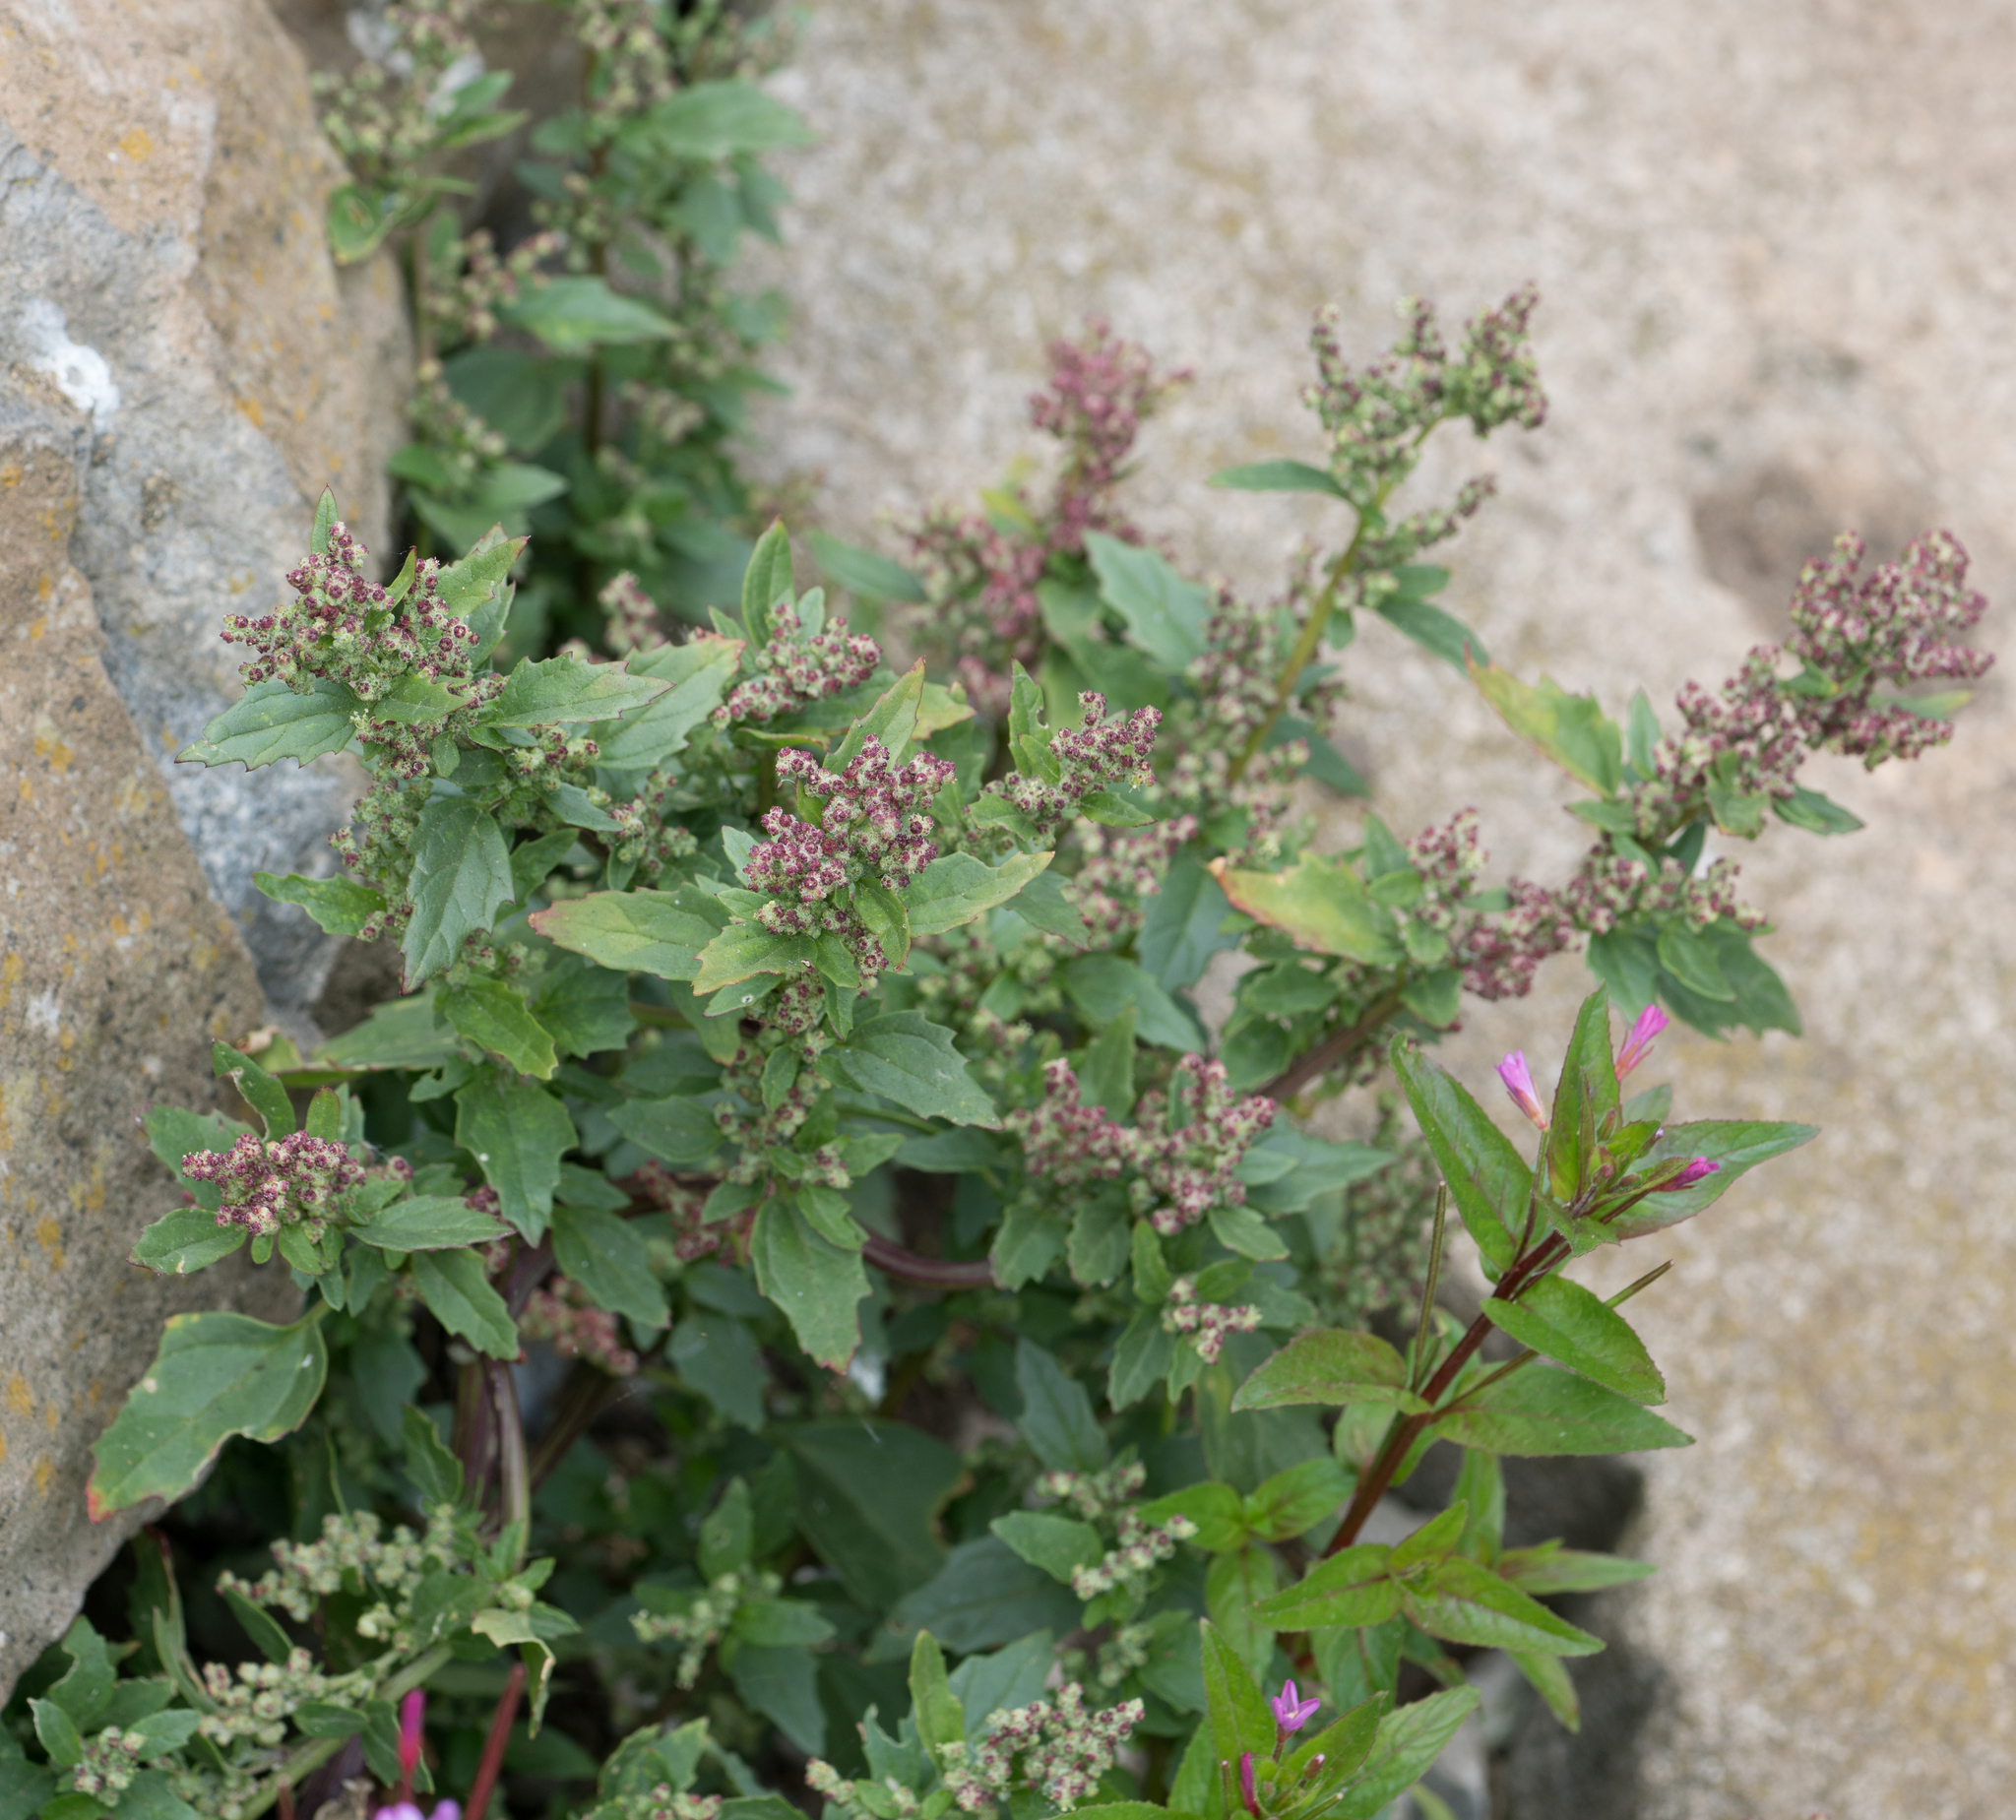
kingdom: Plantae
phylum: Tracheophyta
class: Magnoliopsida
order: Caryophyllales
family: Amaranthaceae
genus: Chenopodiastrum
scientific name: Chenopodiastrum murale
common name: Sowbane
